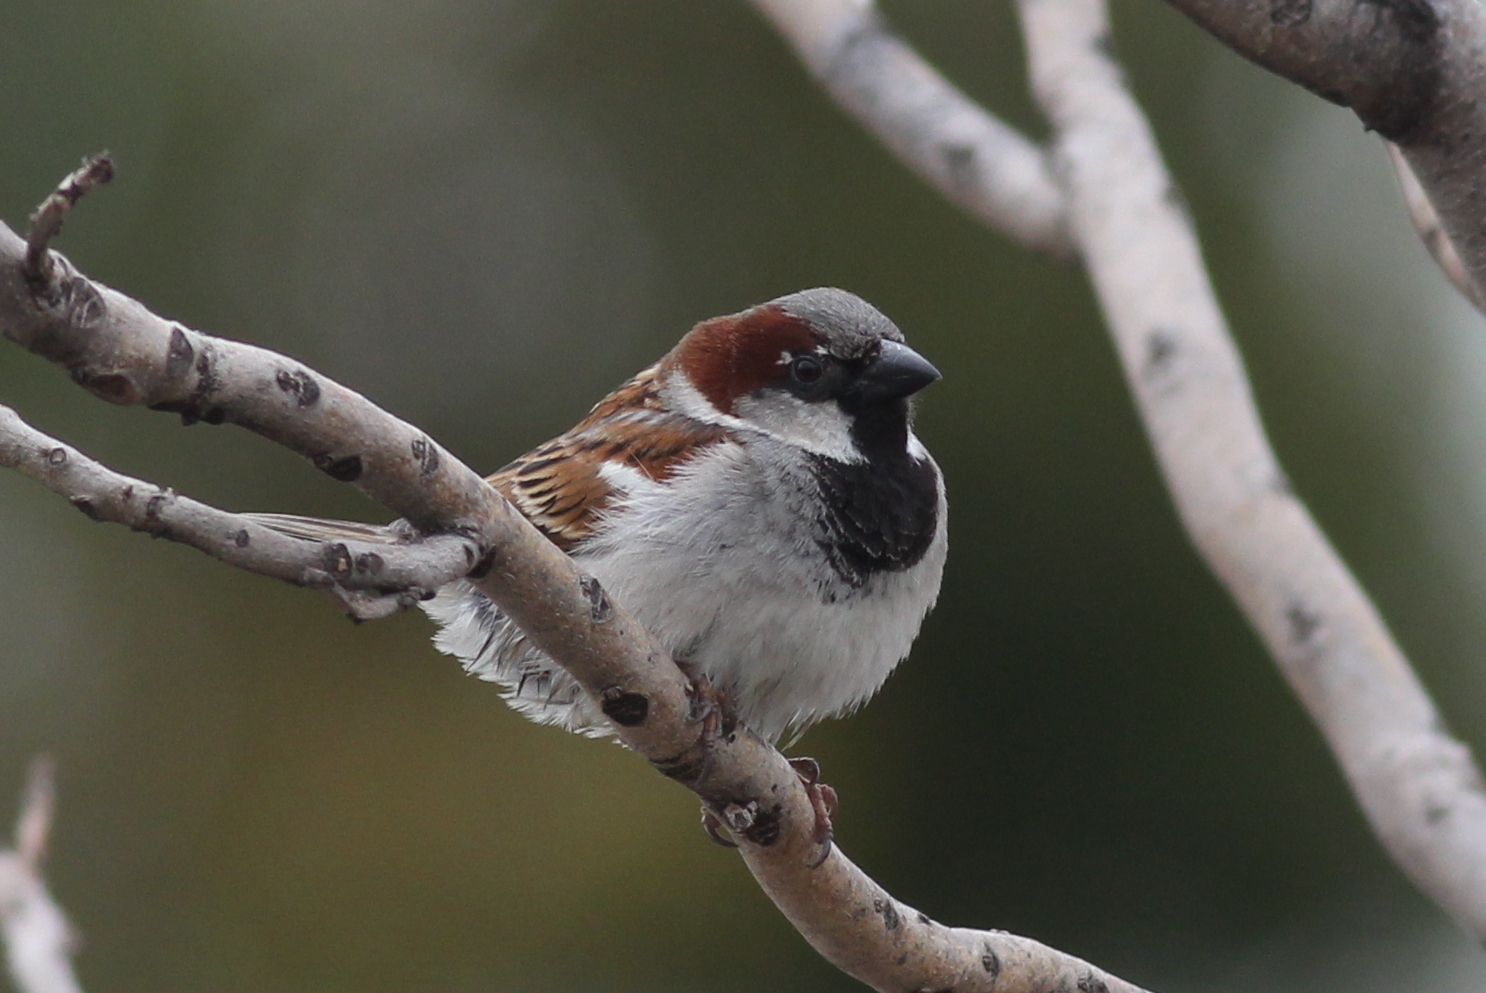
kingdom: Animalia
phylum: Chordata
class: Aves
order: Passeriformes
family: Passeridae
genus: Passer
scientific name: Passer domesticus
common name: House sparrow
